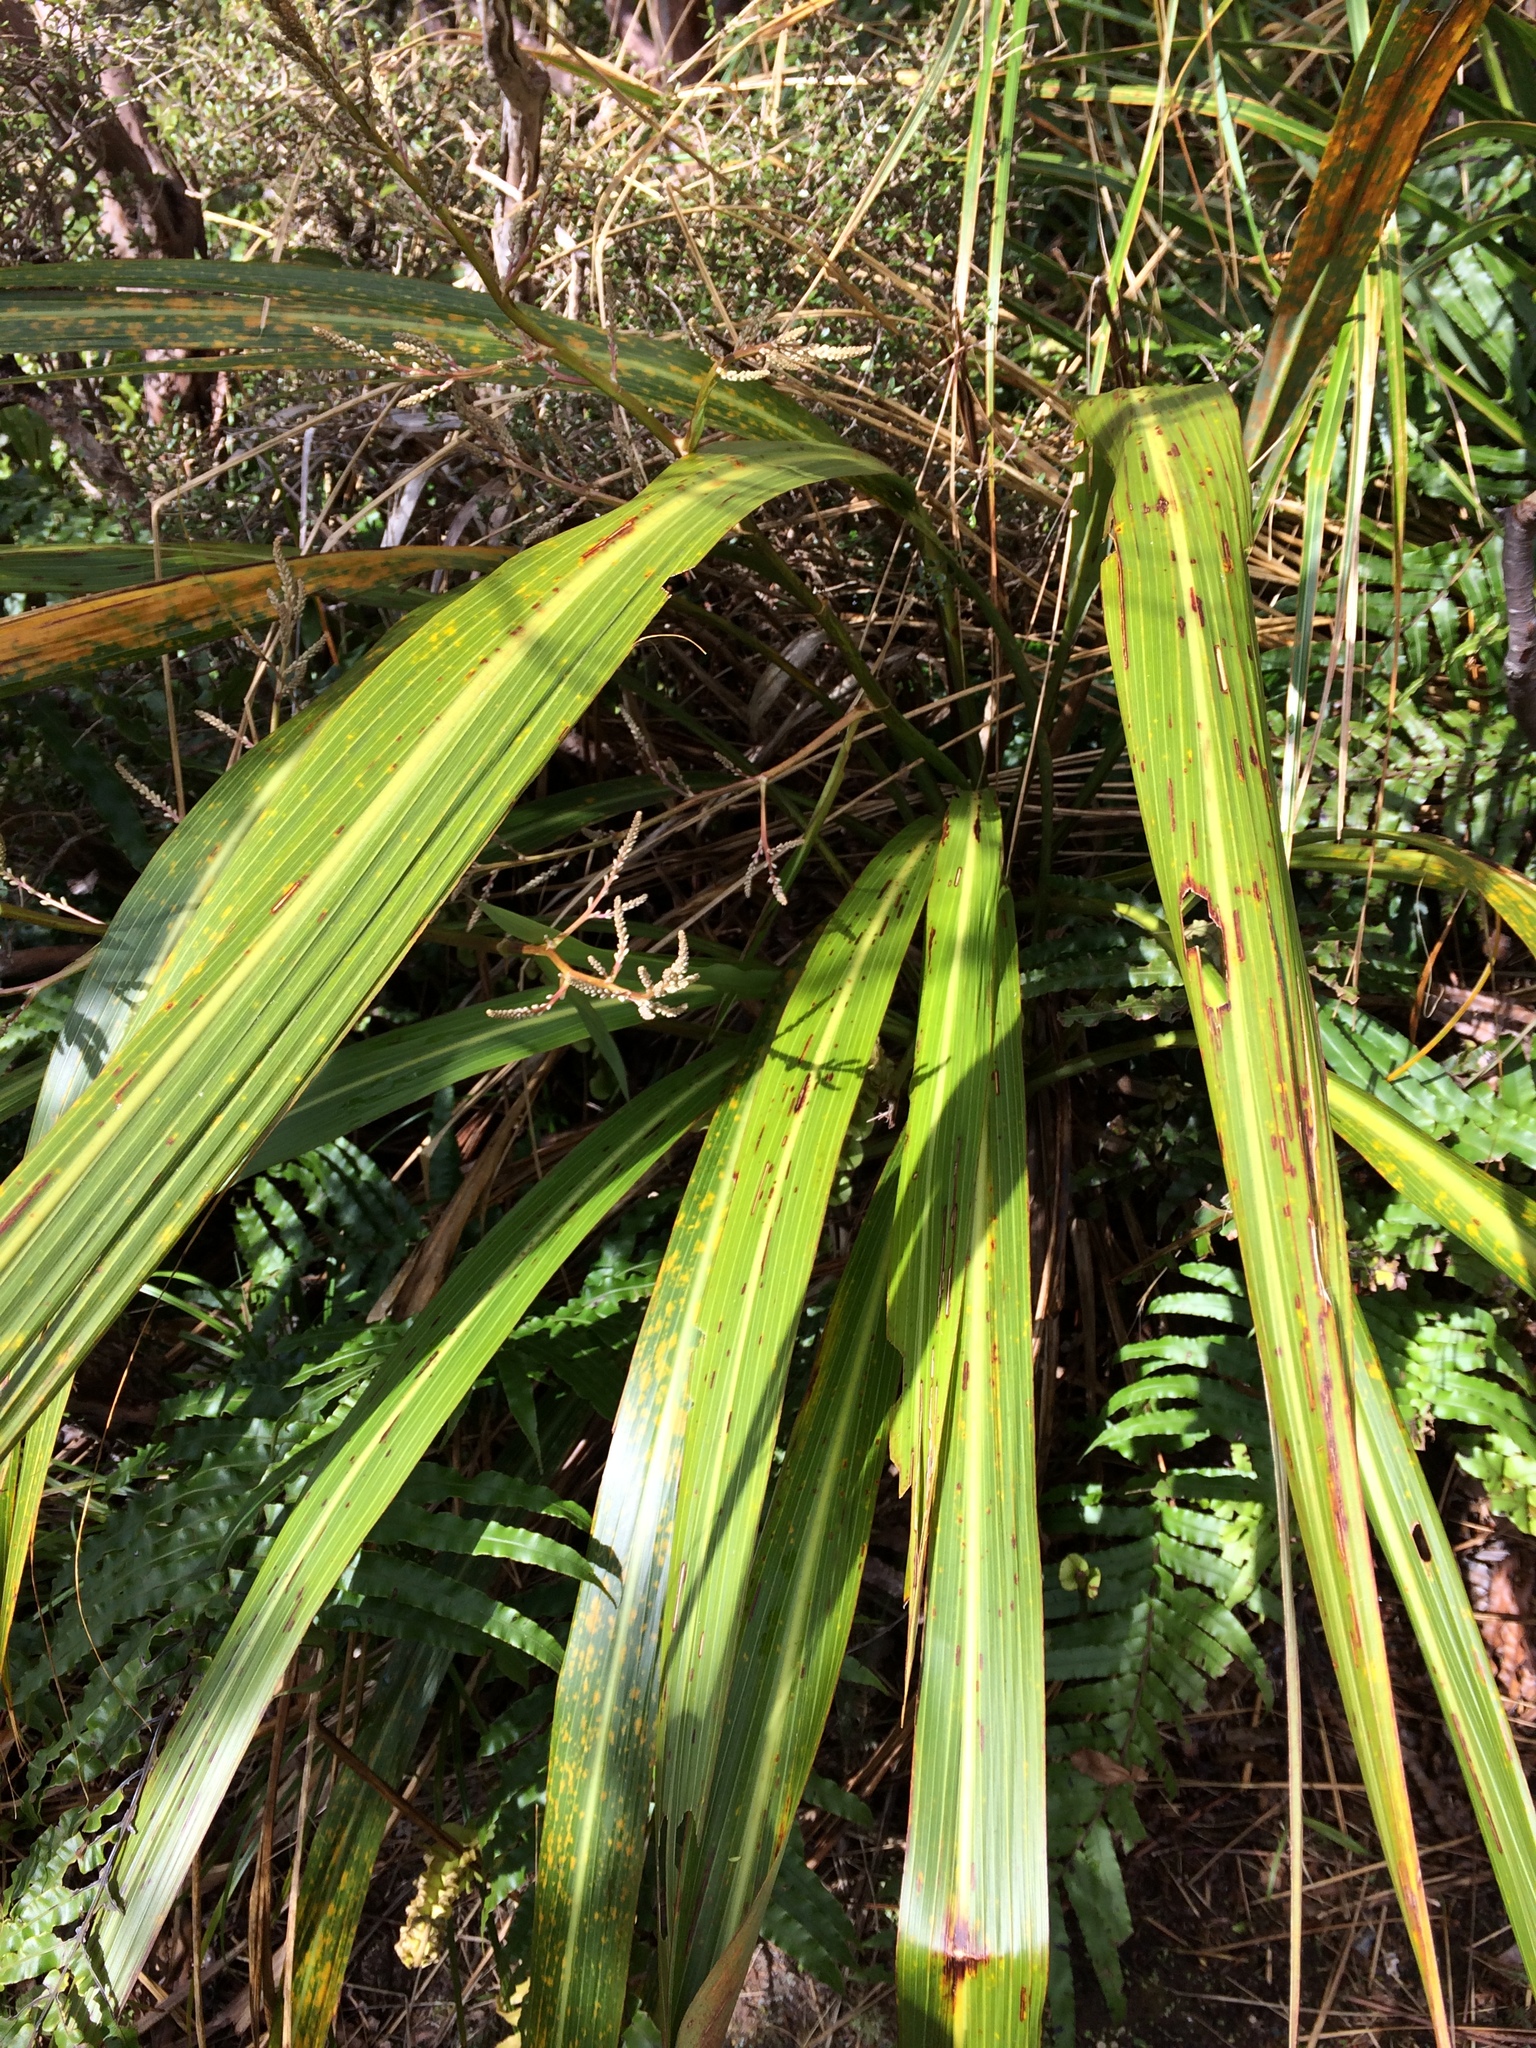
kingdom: Plantae
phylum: Tracheophyta
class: Liliopsida
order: Asparagales
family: Asparagaceae
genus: Cordyline
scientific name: Cordyline banksii
